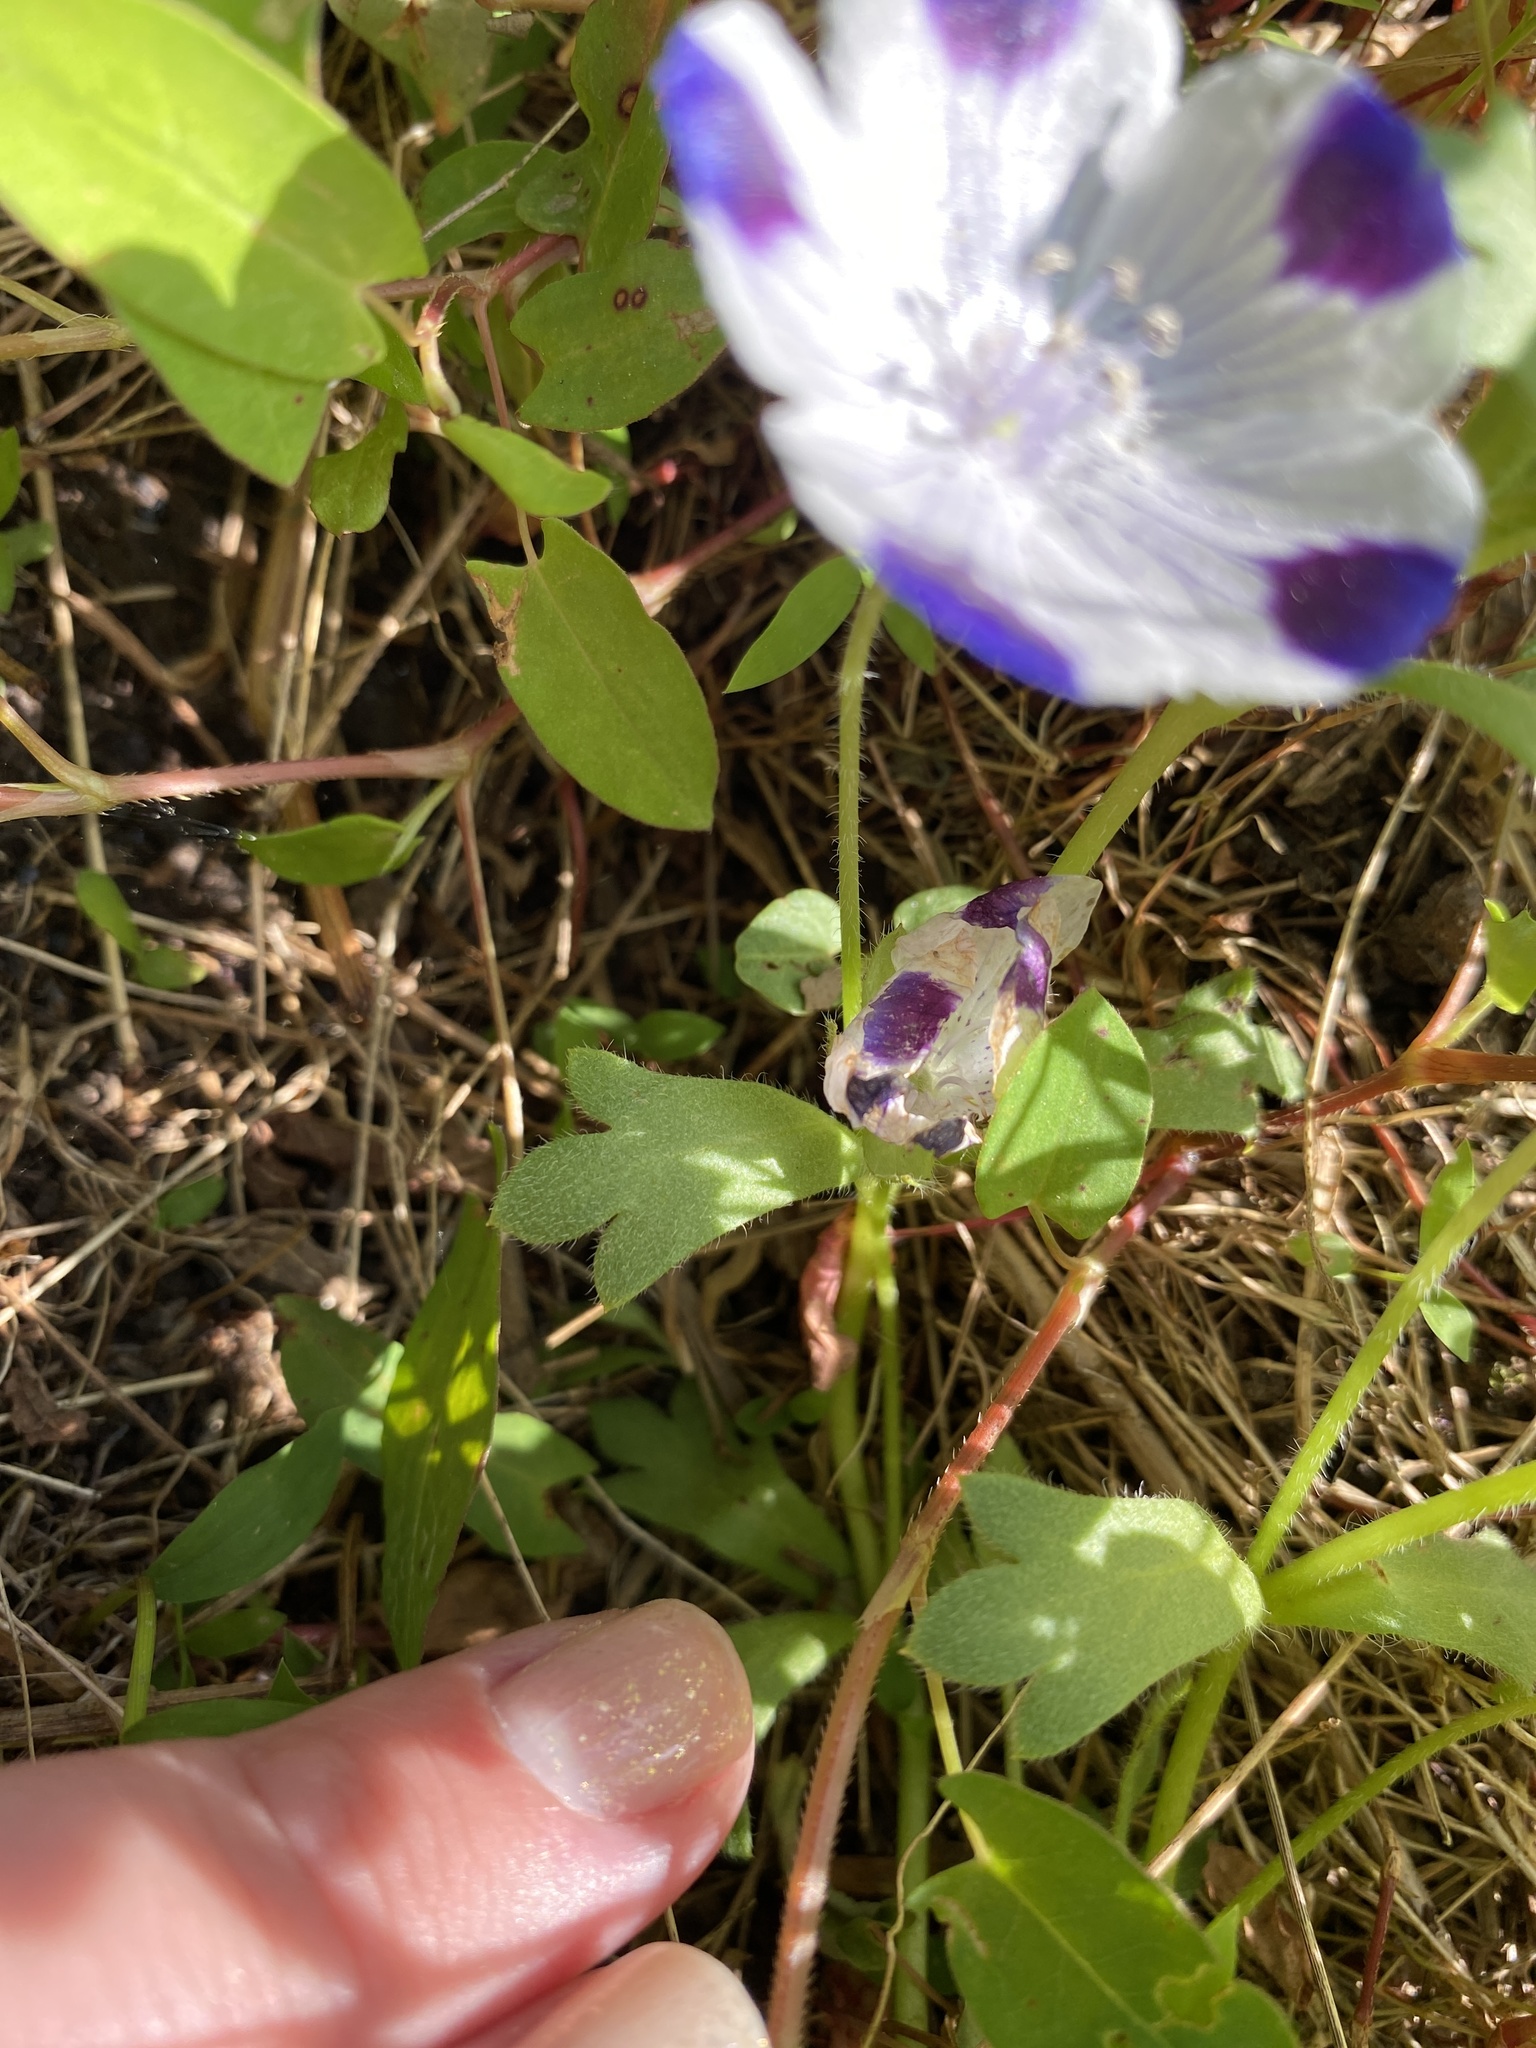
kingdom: Plantae
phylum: Tracheophyta
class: Magnoliopsida
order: Boraginales
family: Hydrophyllaceae
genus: Nemophila
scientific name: Nemophila maculata
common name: Fivespot
